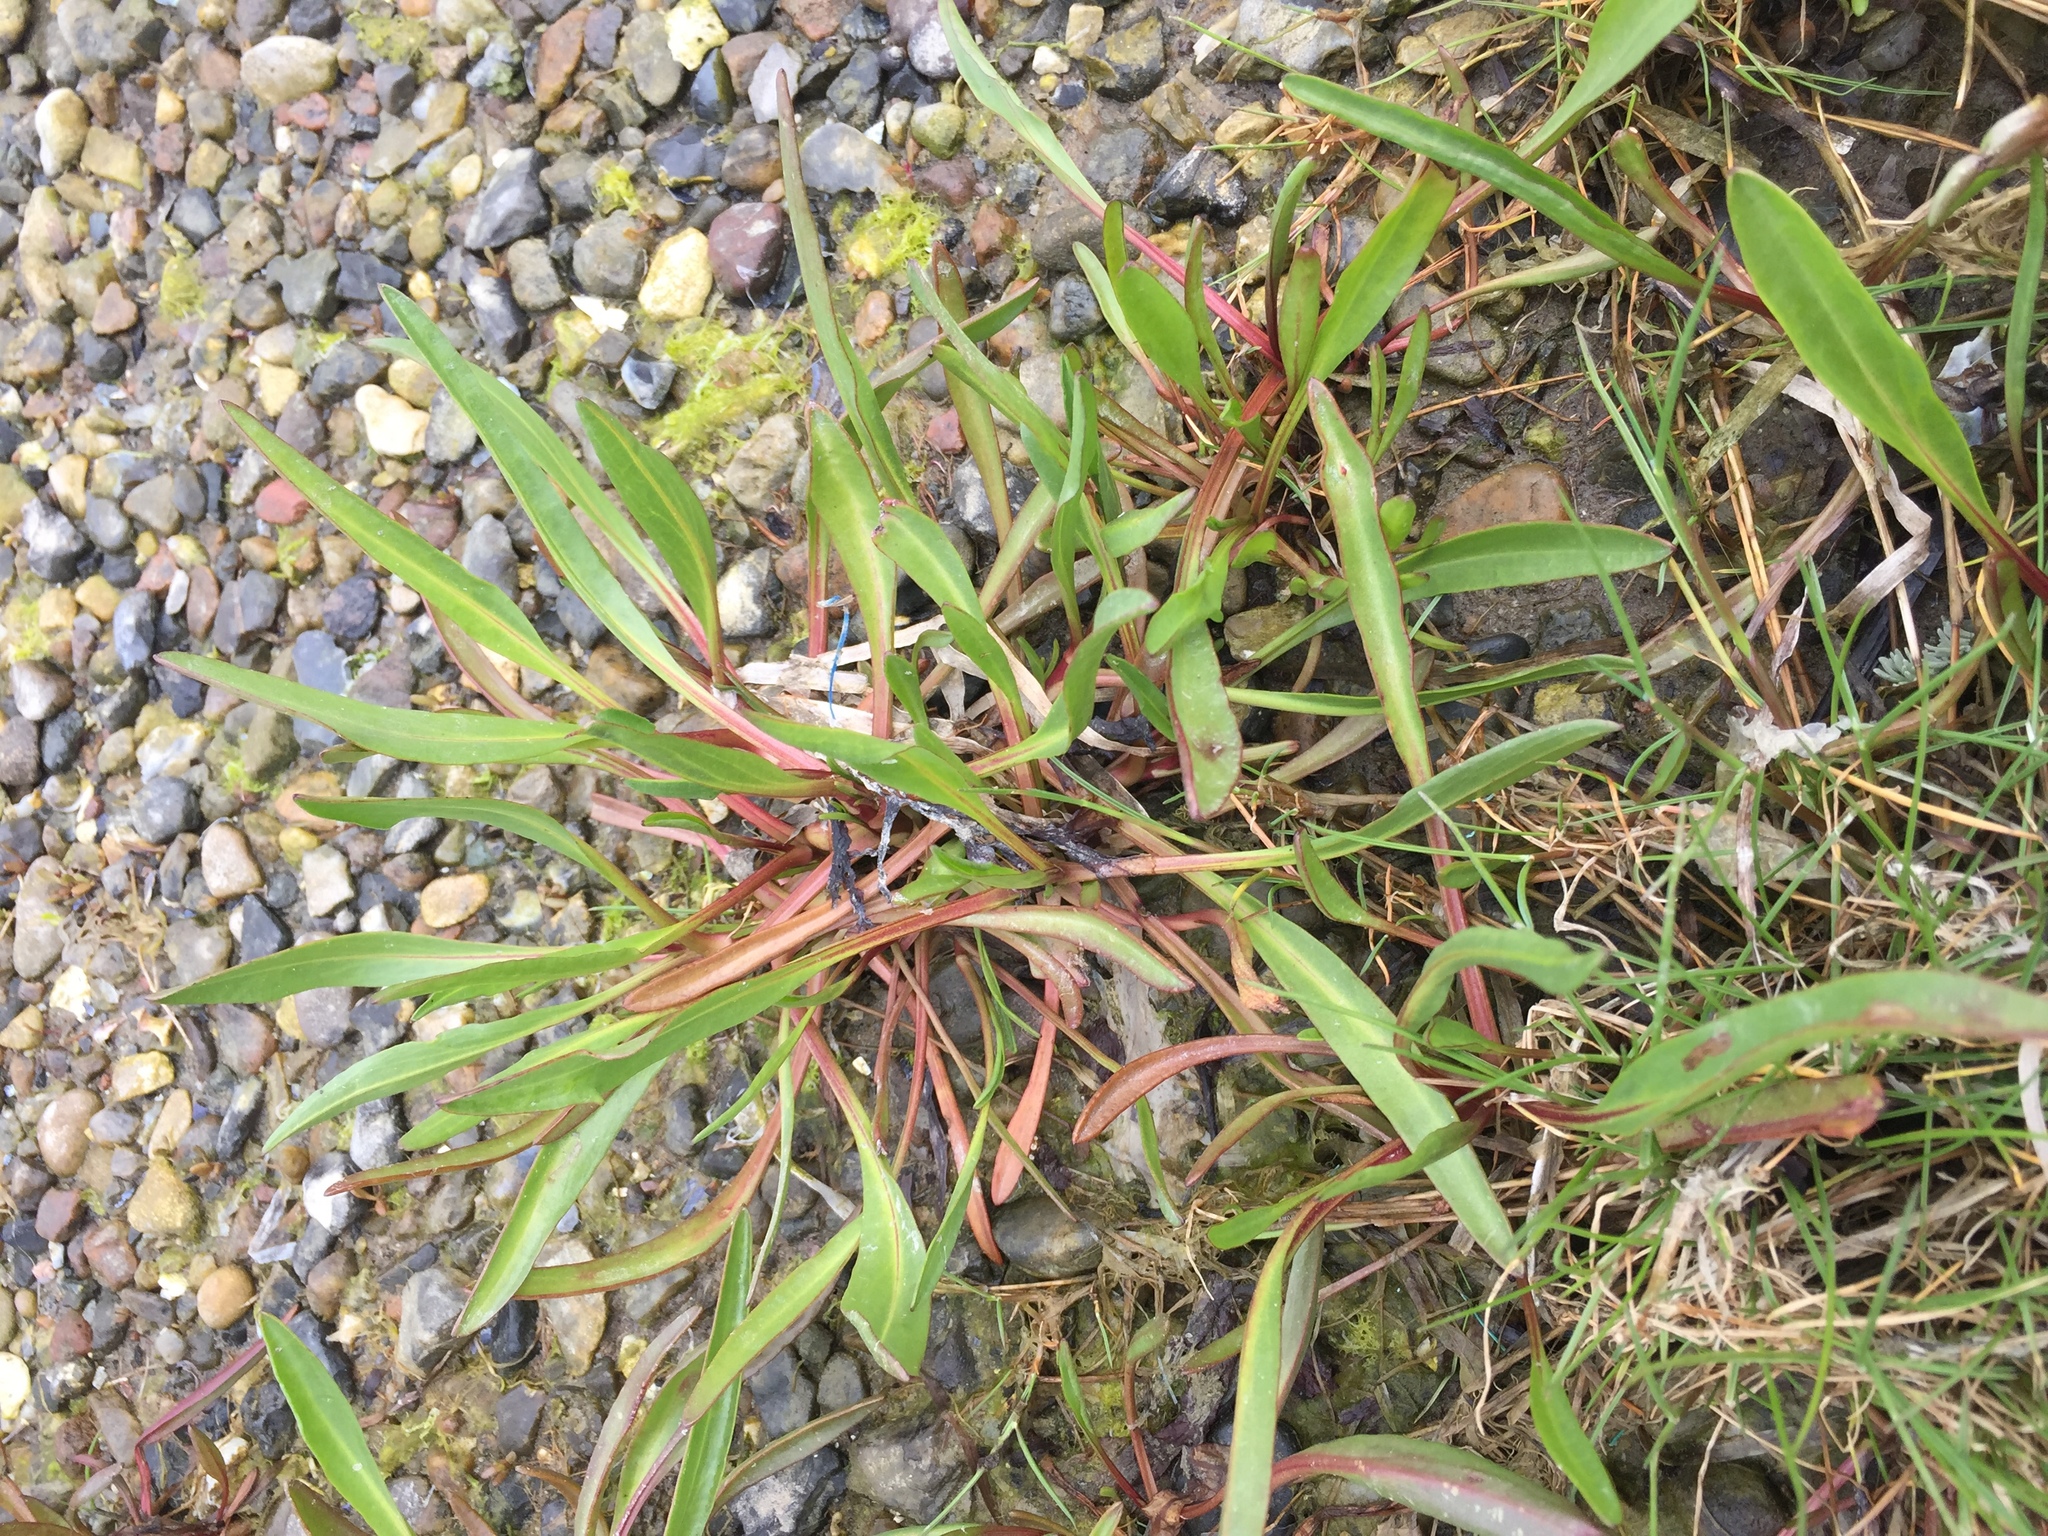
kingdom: Plantae
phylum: Tracheophyta
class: Magnoliopsida
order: Asterales
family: Asteraceae
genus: Tripolium
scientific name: Tripolium pannonicum
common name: Sea aster
